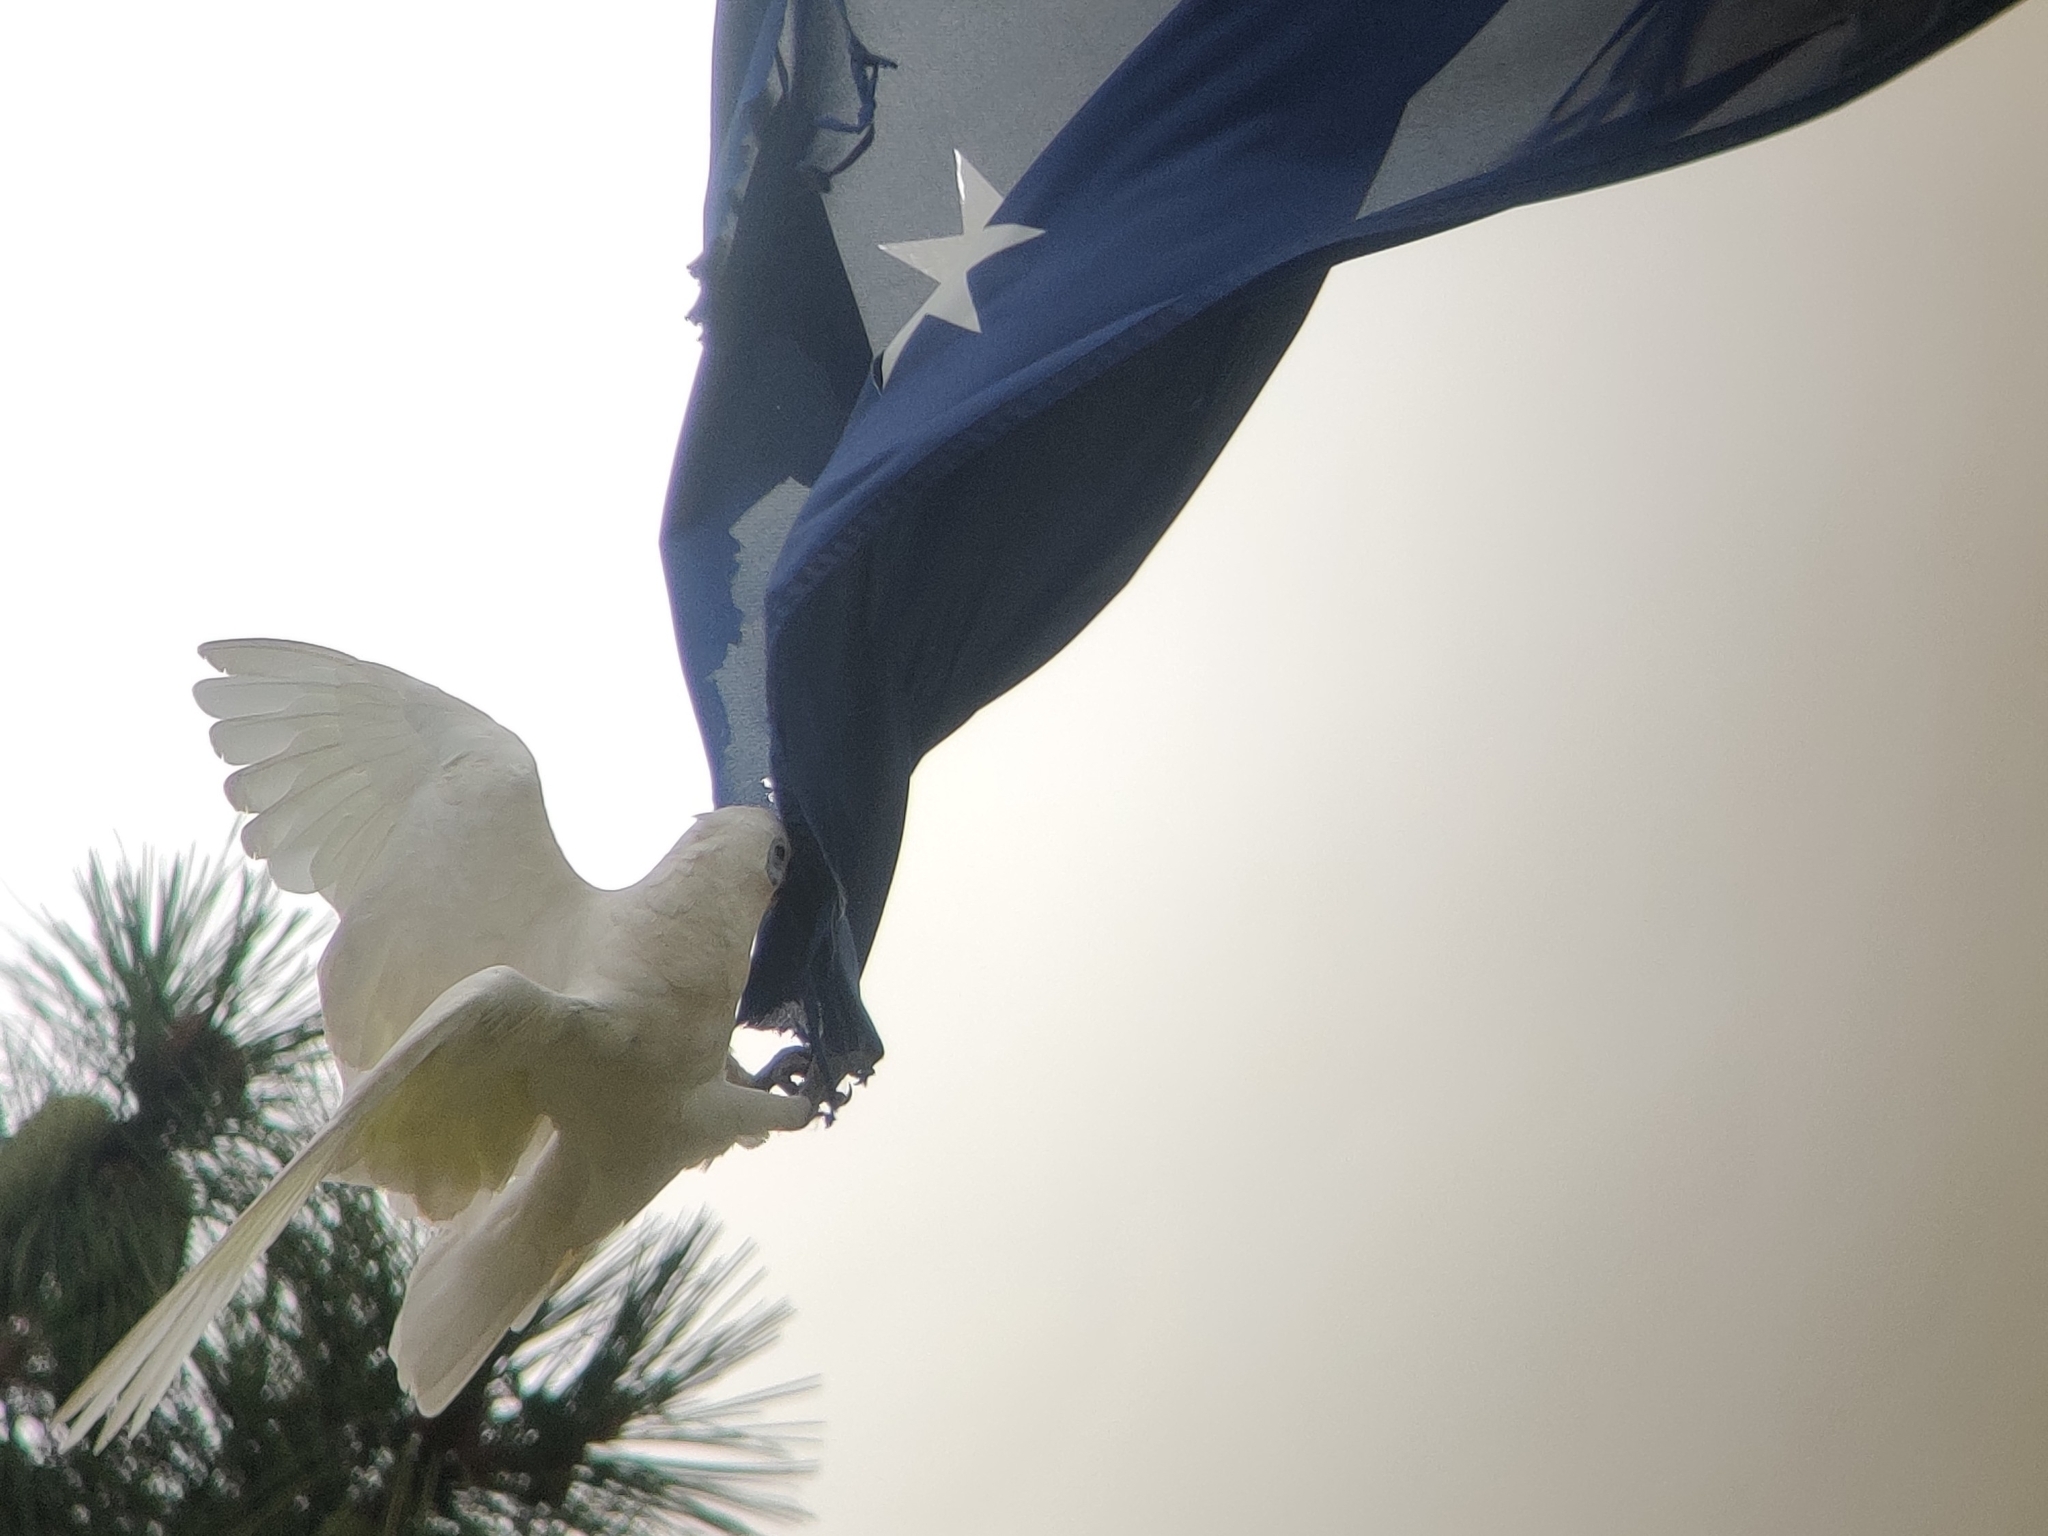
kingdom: Animalia
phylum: Chordata
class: Aves
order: Psittaciformes
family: Psittacidae
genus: Cacatua
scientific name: Cacatua sanguinea
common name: Little corella
